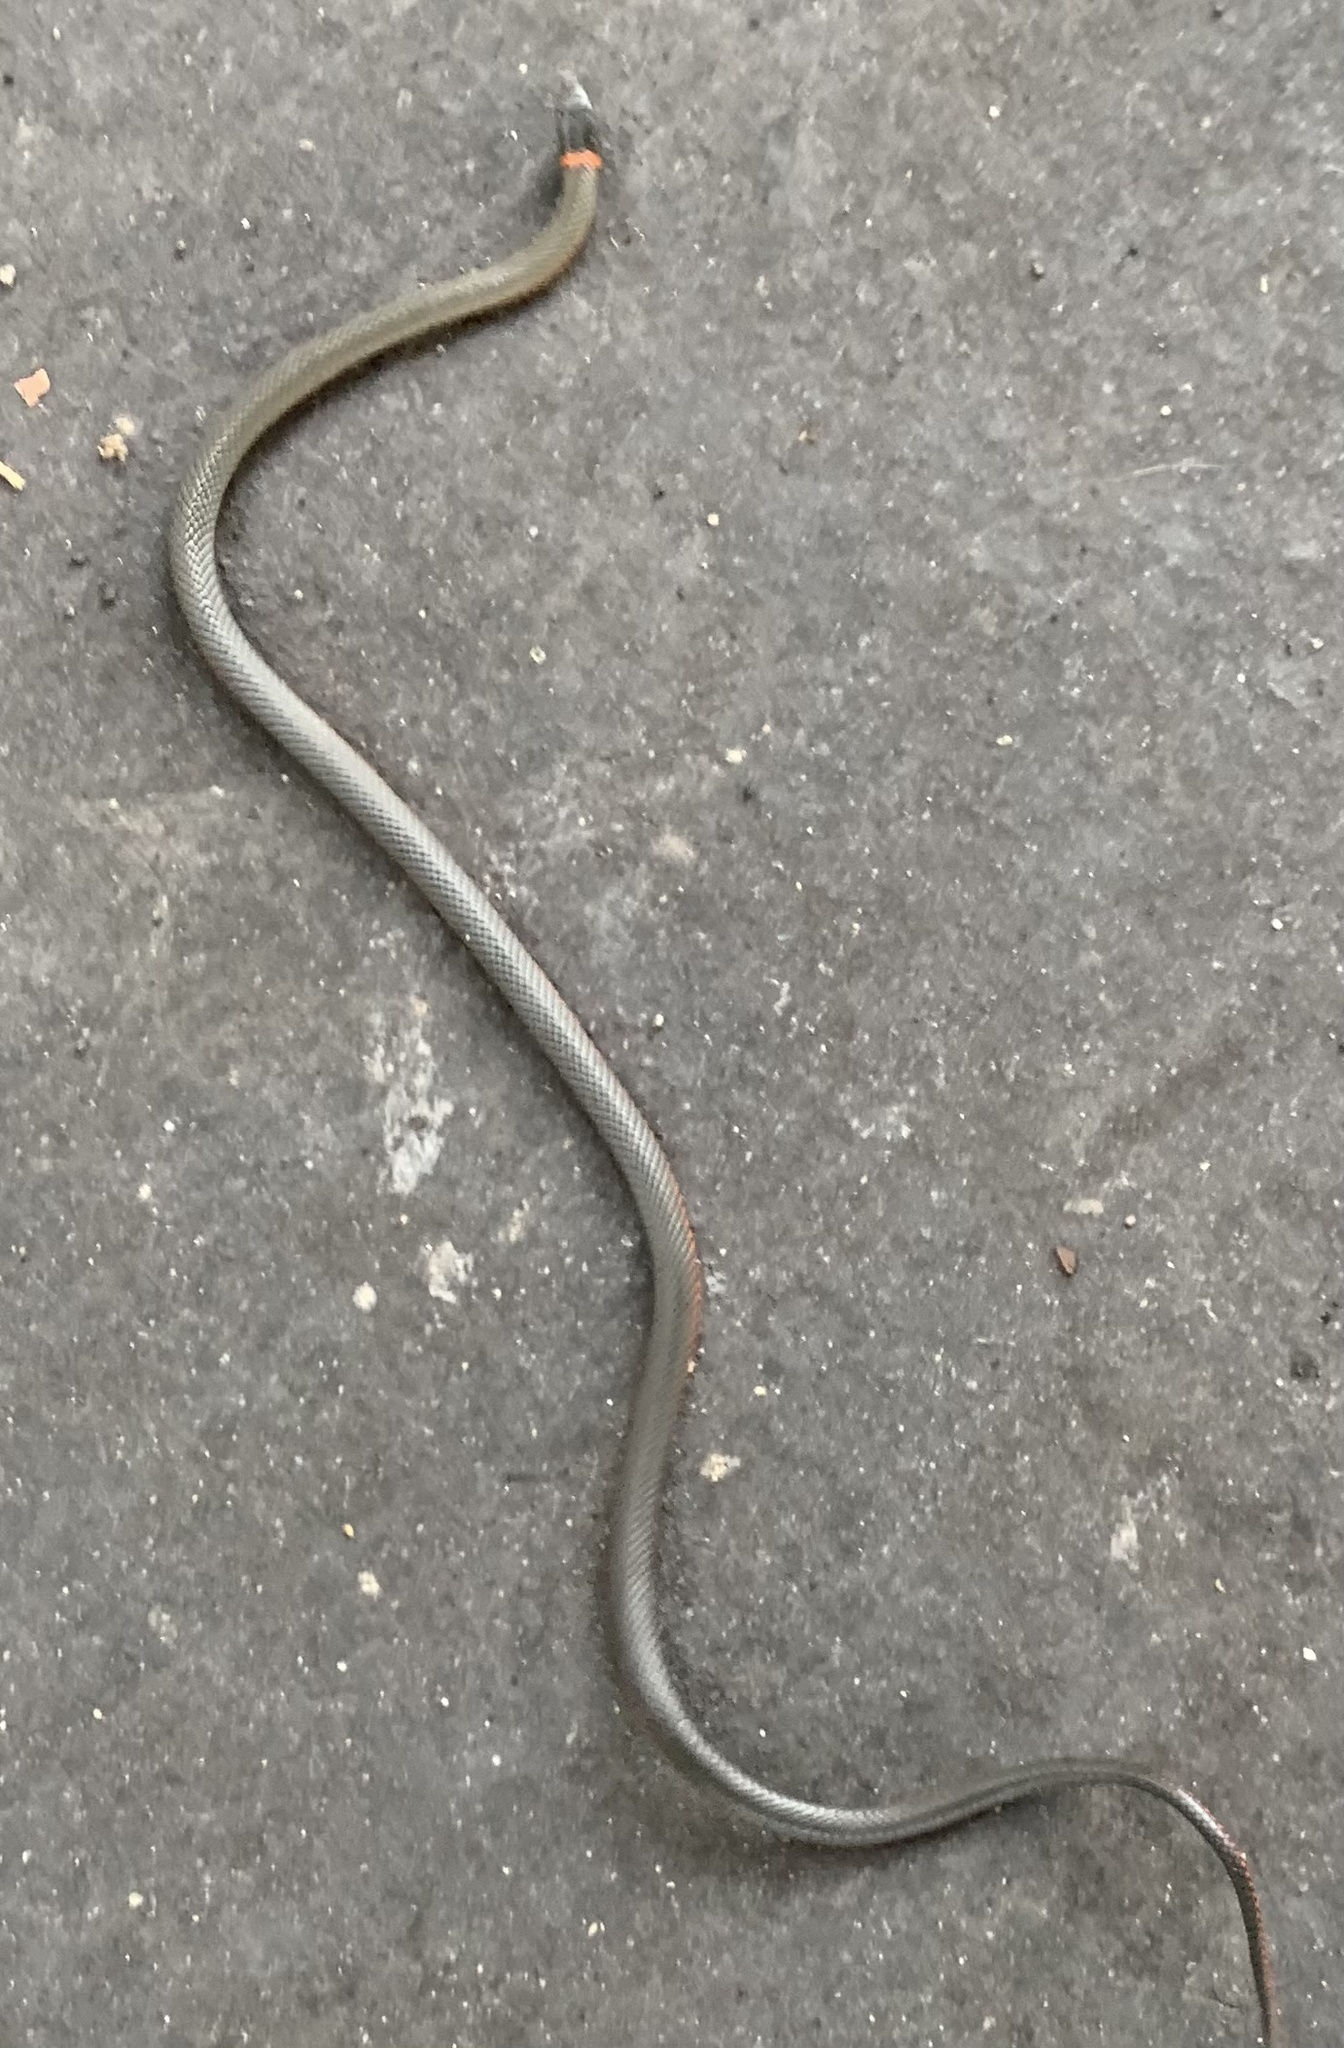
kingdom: Animalia
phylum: Chordata
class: Squamata
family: Colubridae
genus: Diadophis
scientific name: Diadophis punctatus
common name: Ringneck snake
